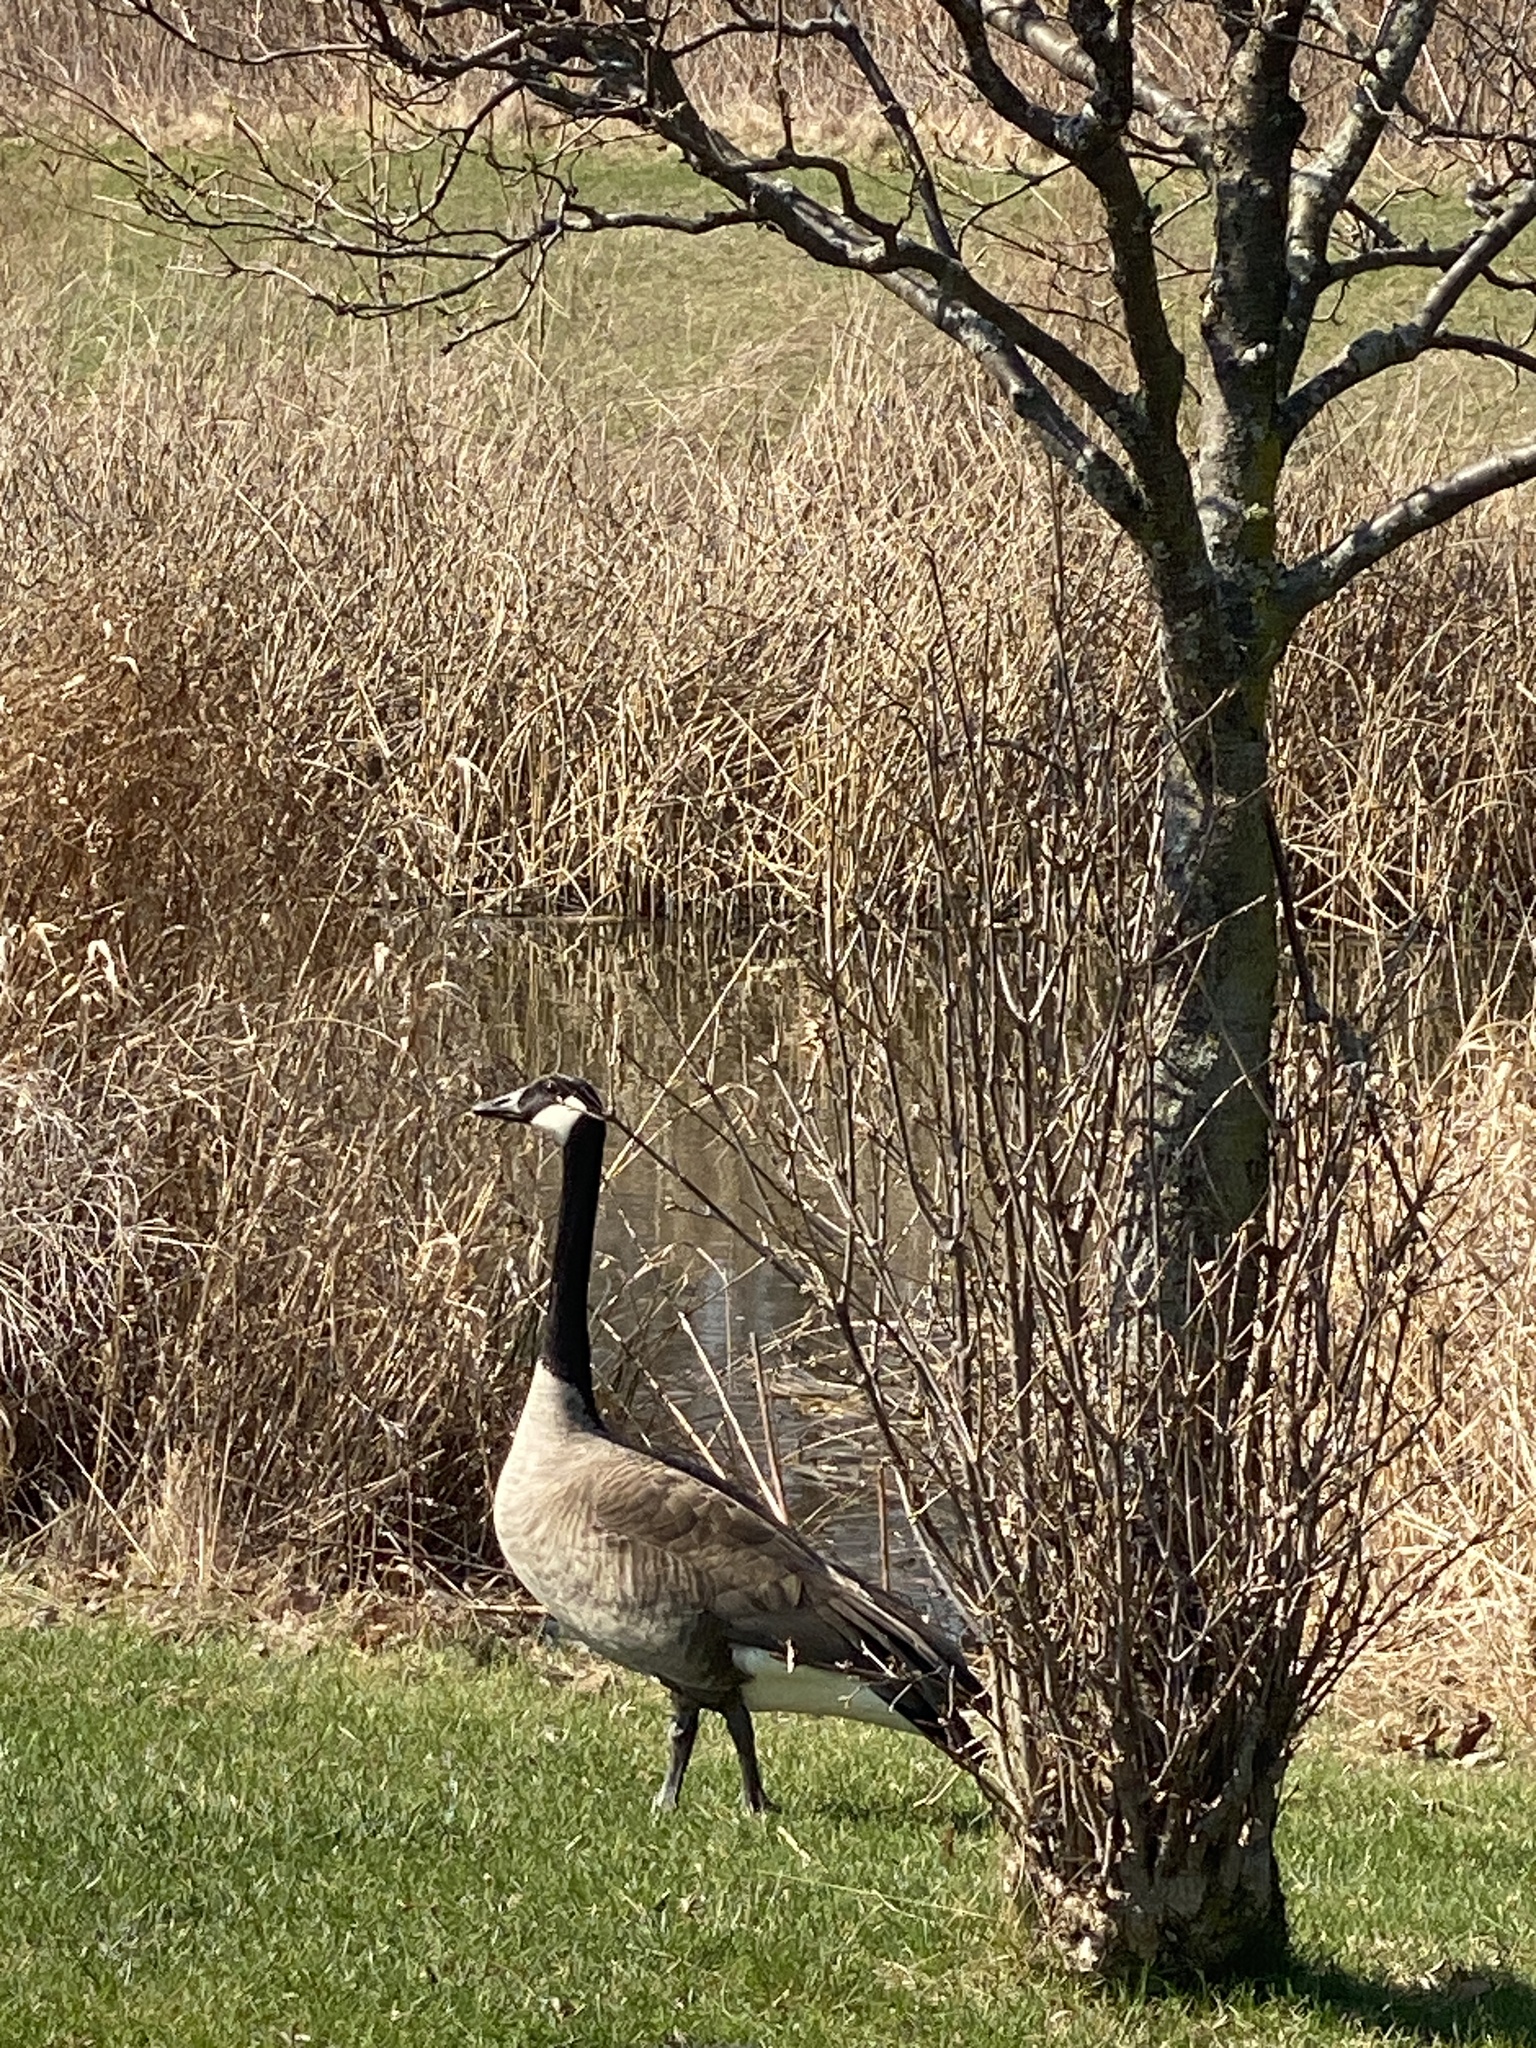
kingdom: Animalia
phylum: Chordata
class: Aves
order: Anseriformes
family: Anatidae
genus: Branta
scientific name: Branta canadensis
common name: Canada goose
